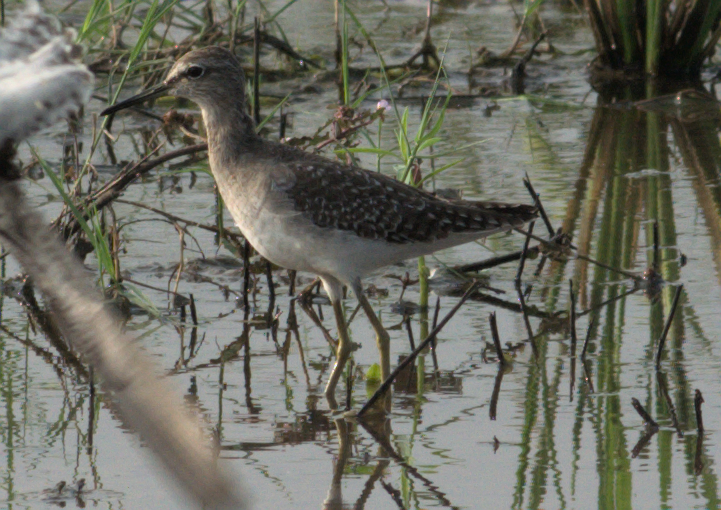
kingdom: Animalia
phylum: Chordata
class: Aves
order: Charadriiformes
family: Scolopacidae
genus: Tringa
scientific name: Tringa glareola
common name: Wood sandpiper
